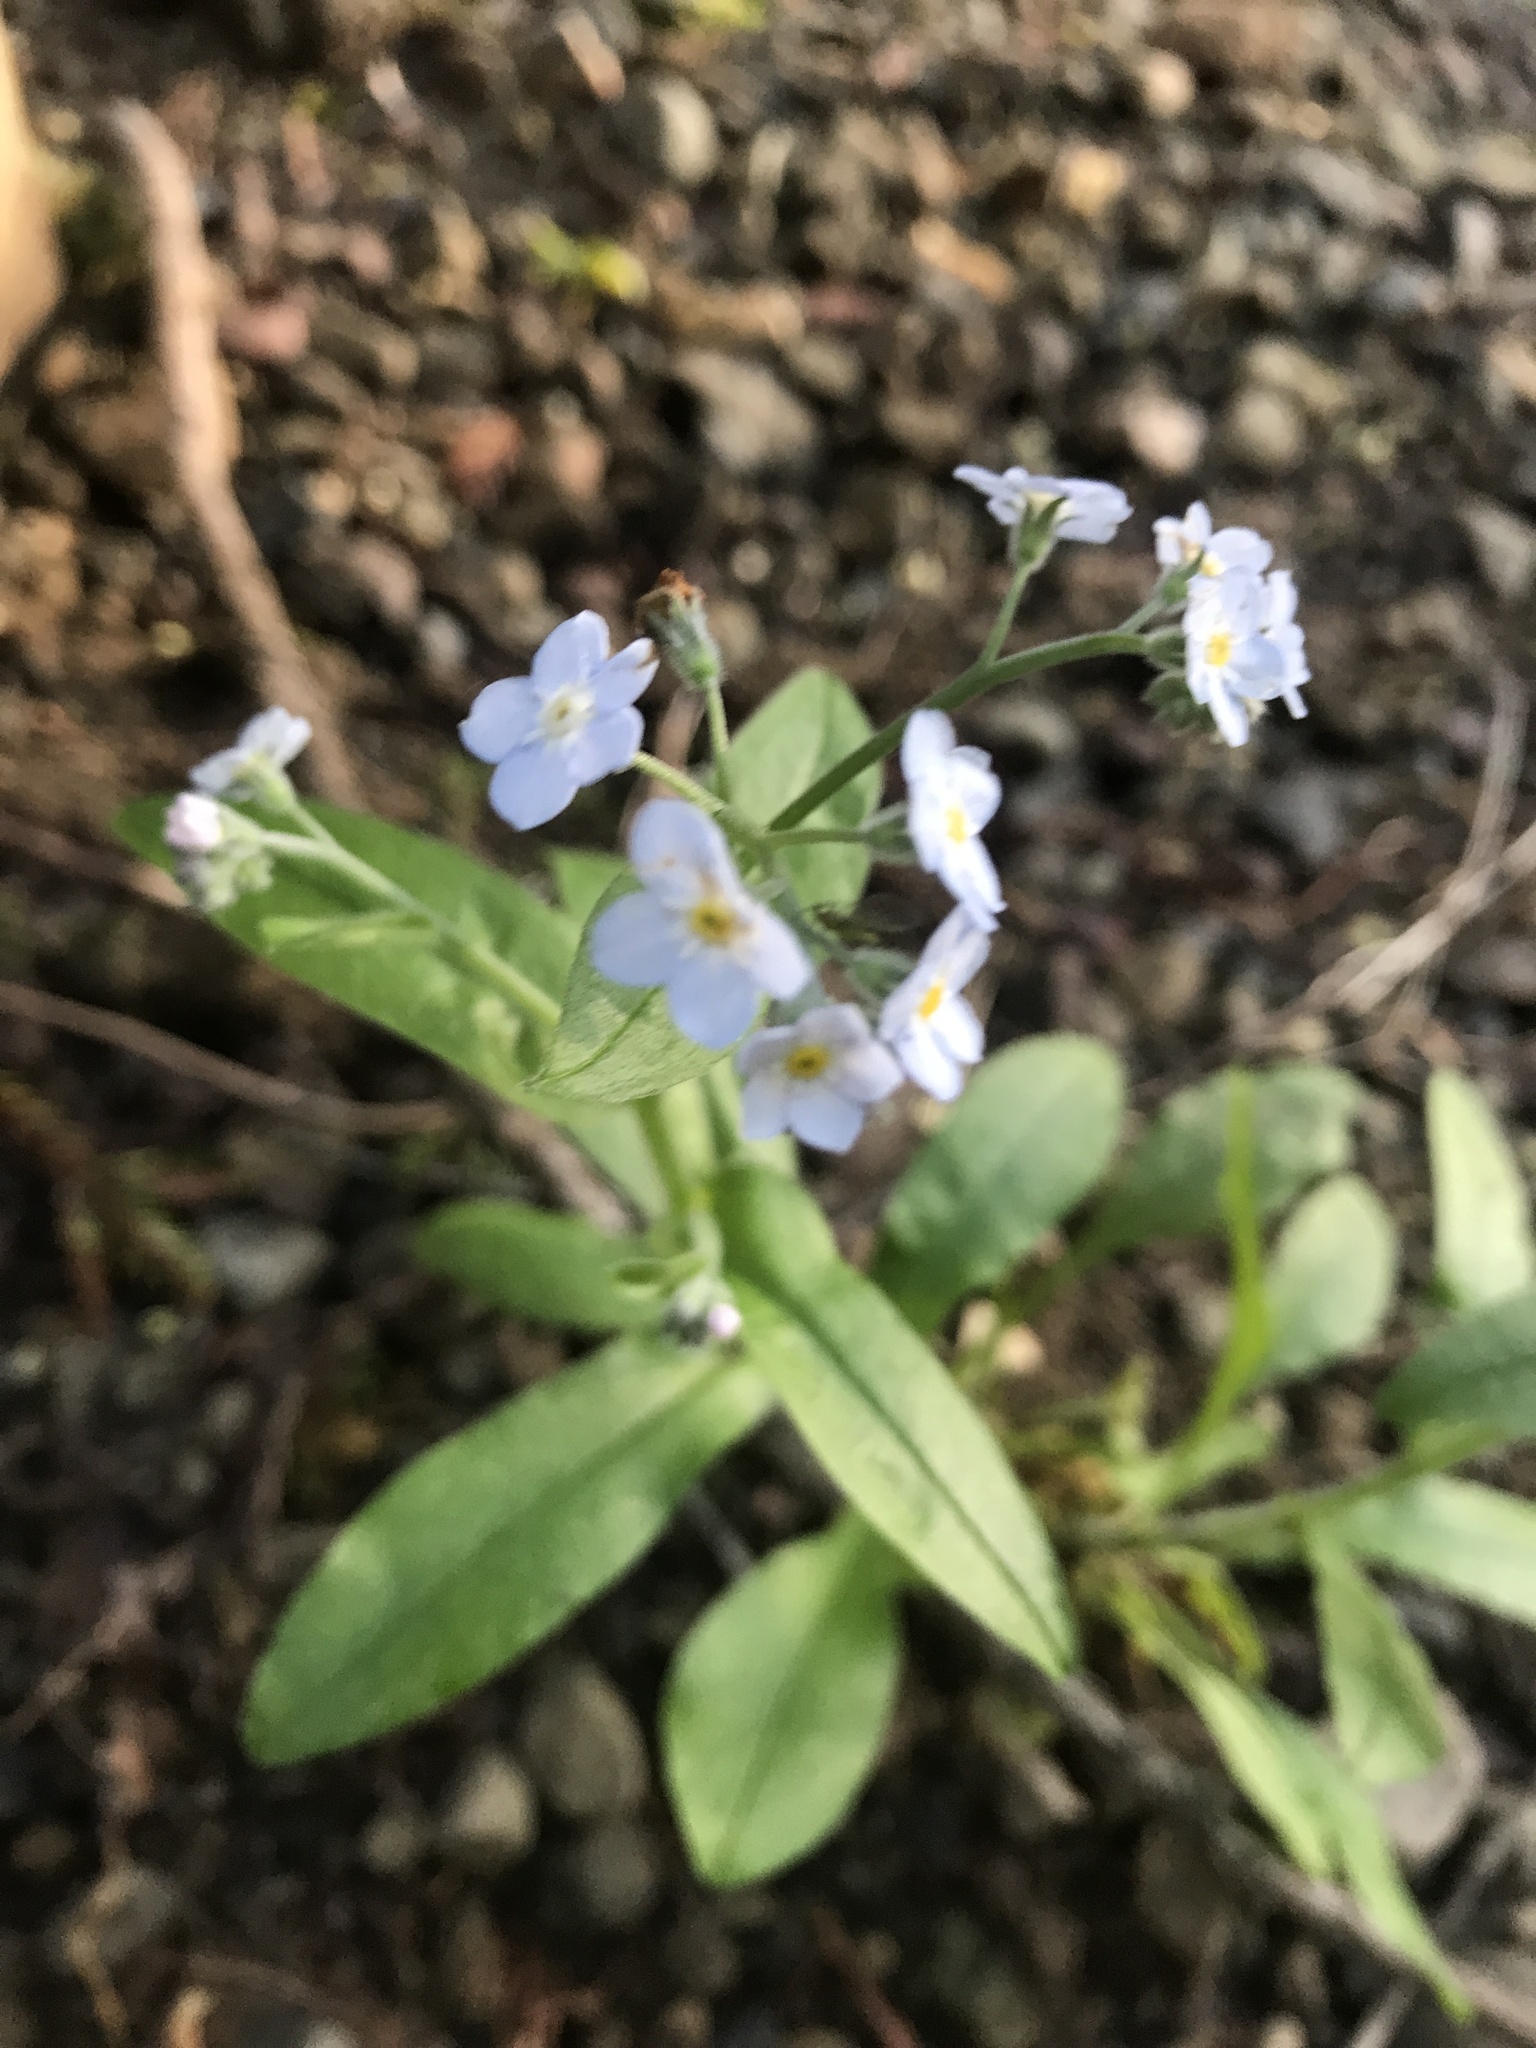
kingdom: Plantae
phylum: Tracheophyta
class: Magnoliopsida
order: Boraginales
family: Boraginaceae
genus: Myosotis
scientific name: Myosotis latifolia
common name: Broadleaf forget-me-not
